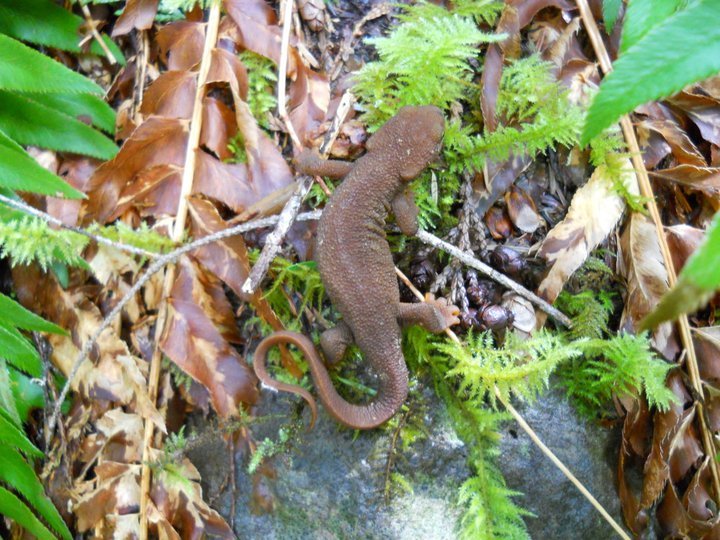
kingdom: Animalia
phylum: Chordata
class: Amphibia
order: Caudata
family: Salamandridae
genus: Taricha
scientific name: Taricha granulosa
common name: Roughskin newt
